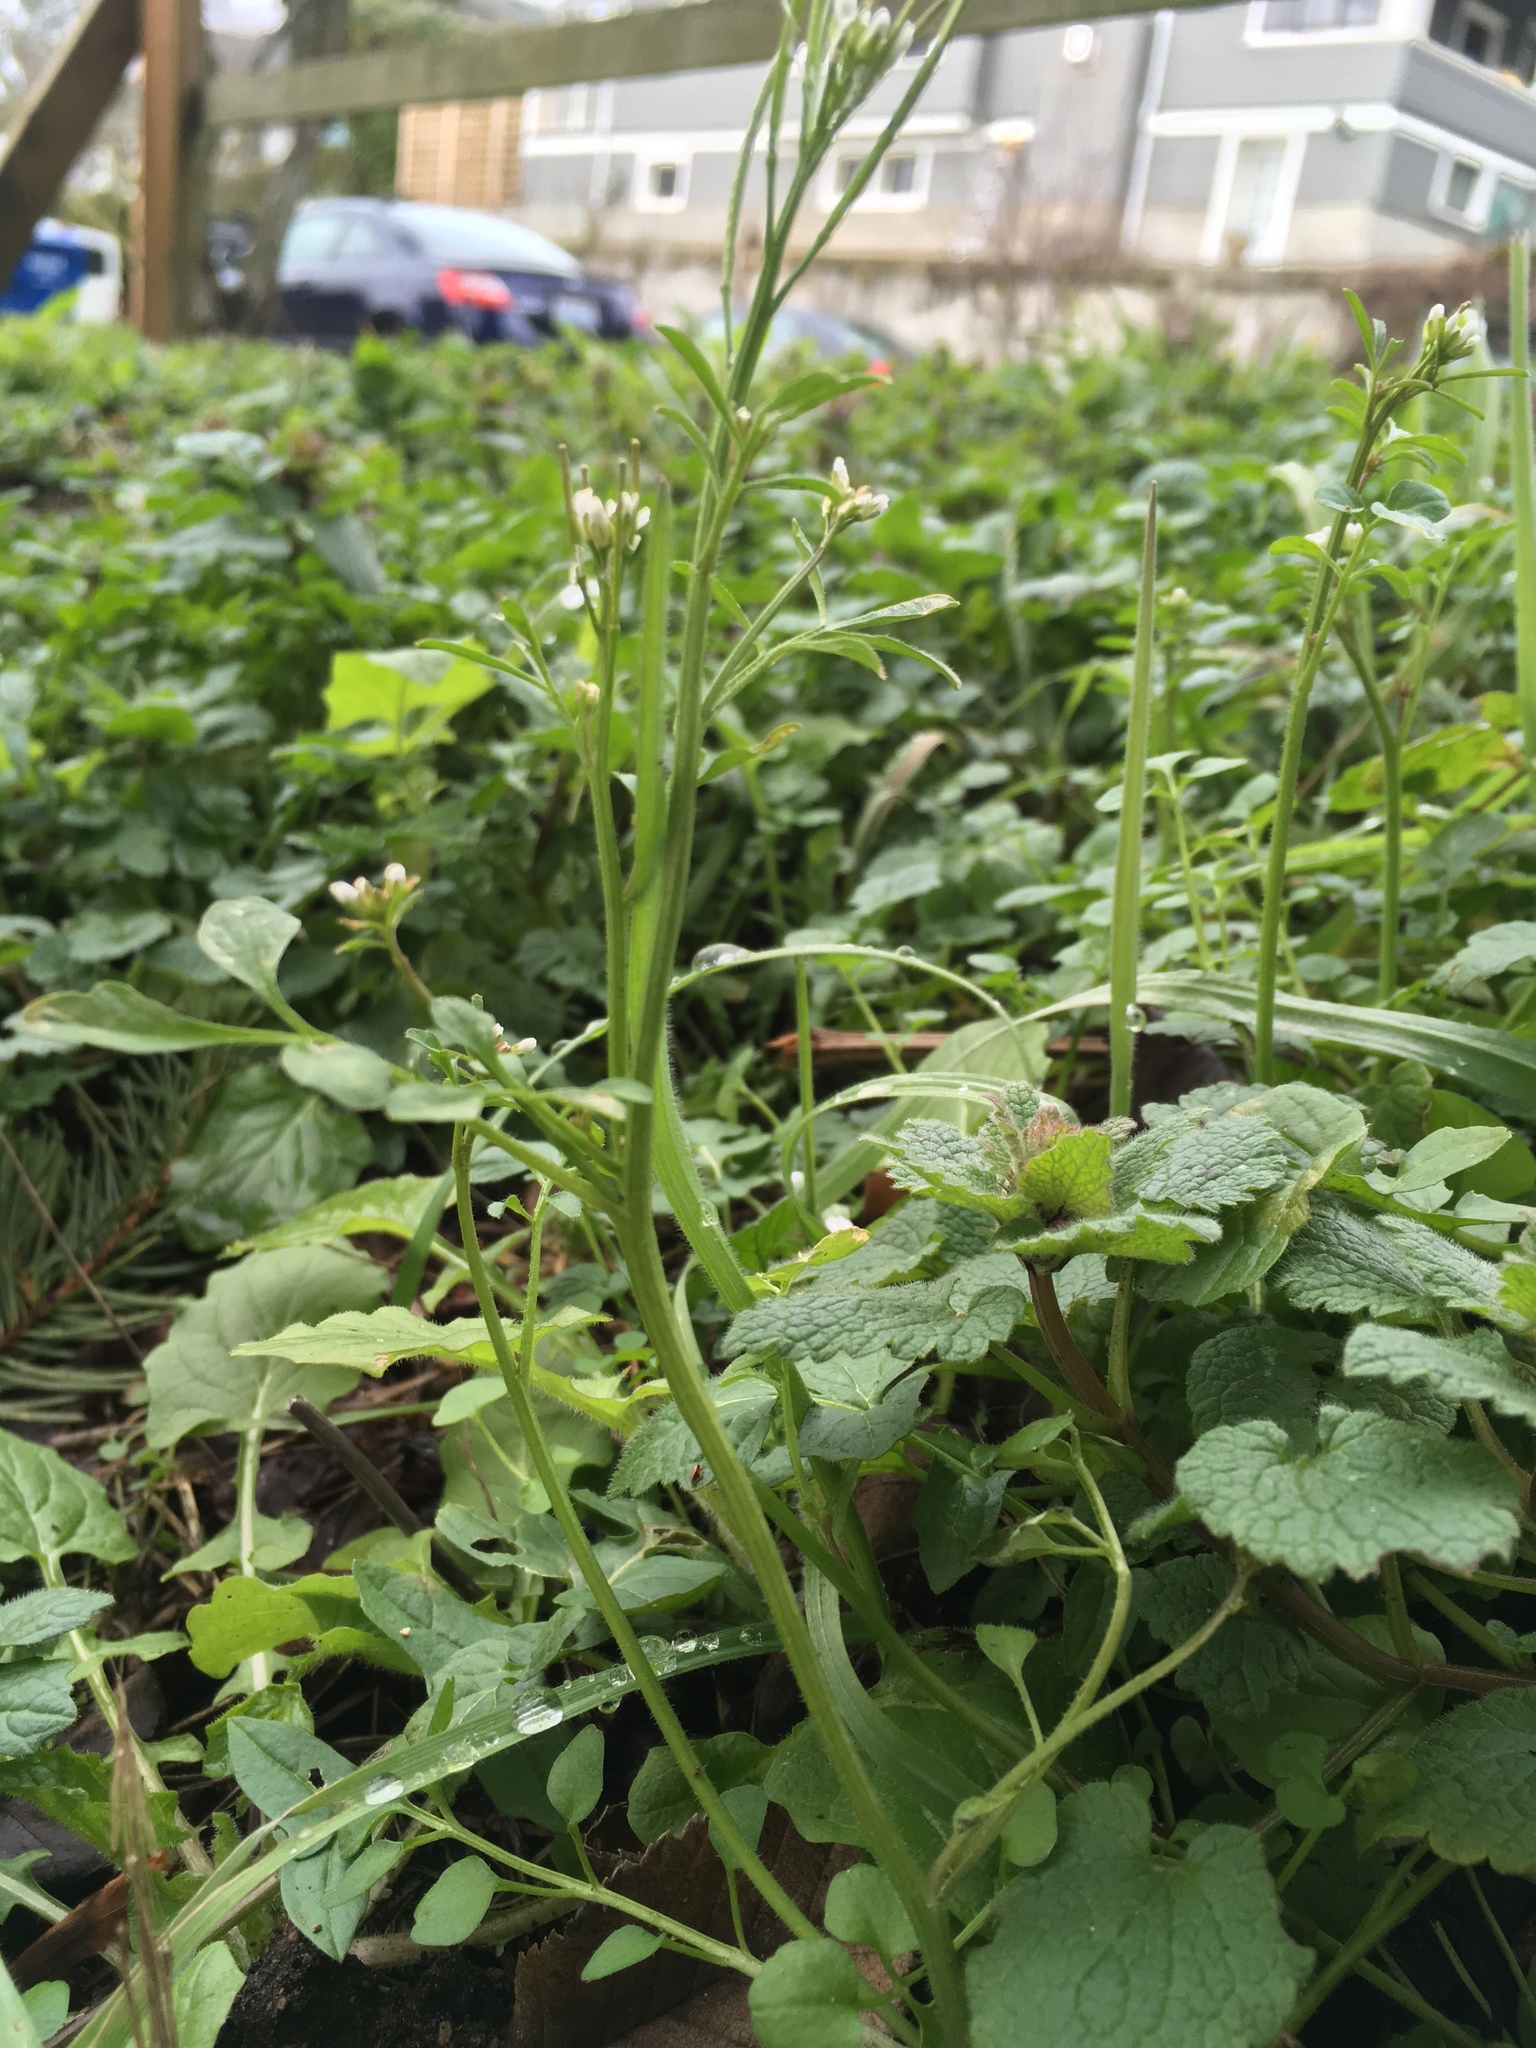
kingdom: Plantae
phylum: Tracheophyta
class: Magnoliopsida
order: Brassicales
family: Brassicaceae
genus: Cardamine
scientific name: Cardamine hirsuta
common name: Hairy bittercress
